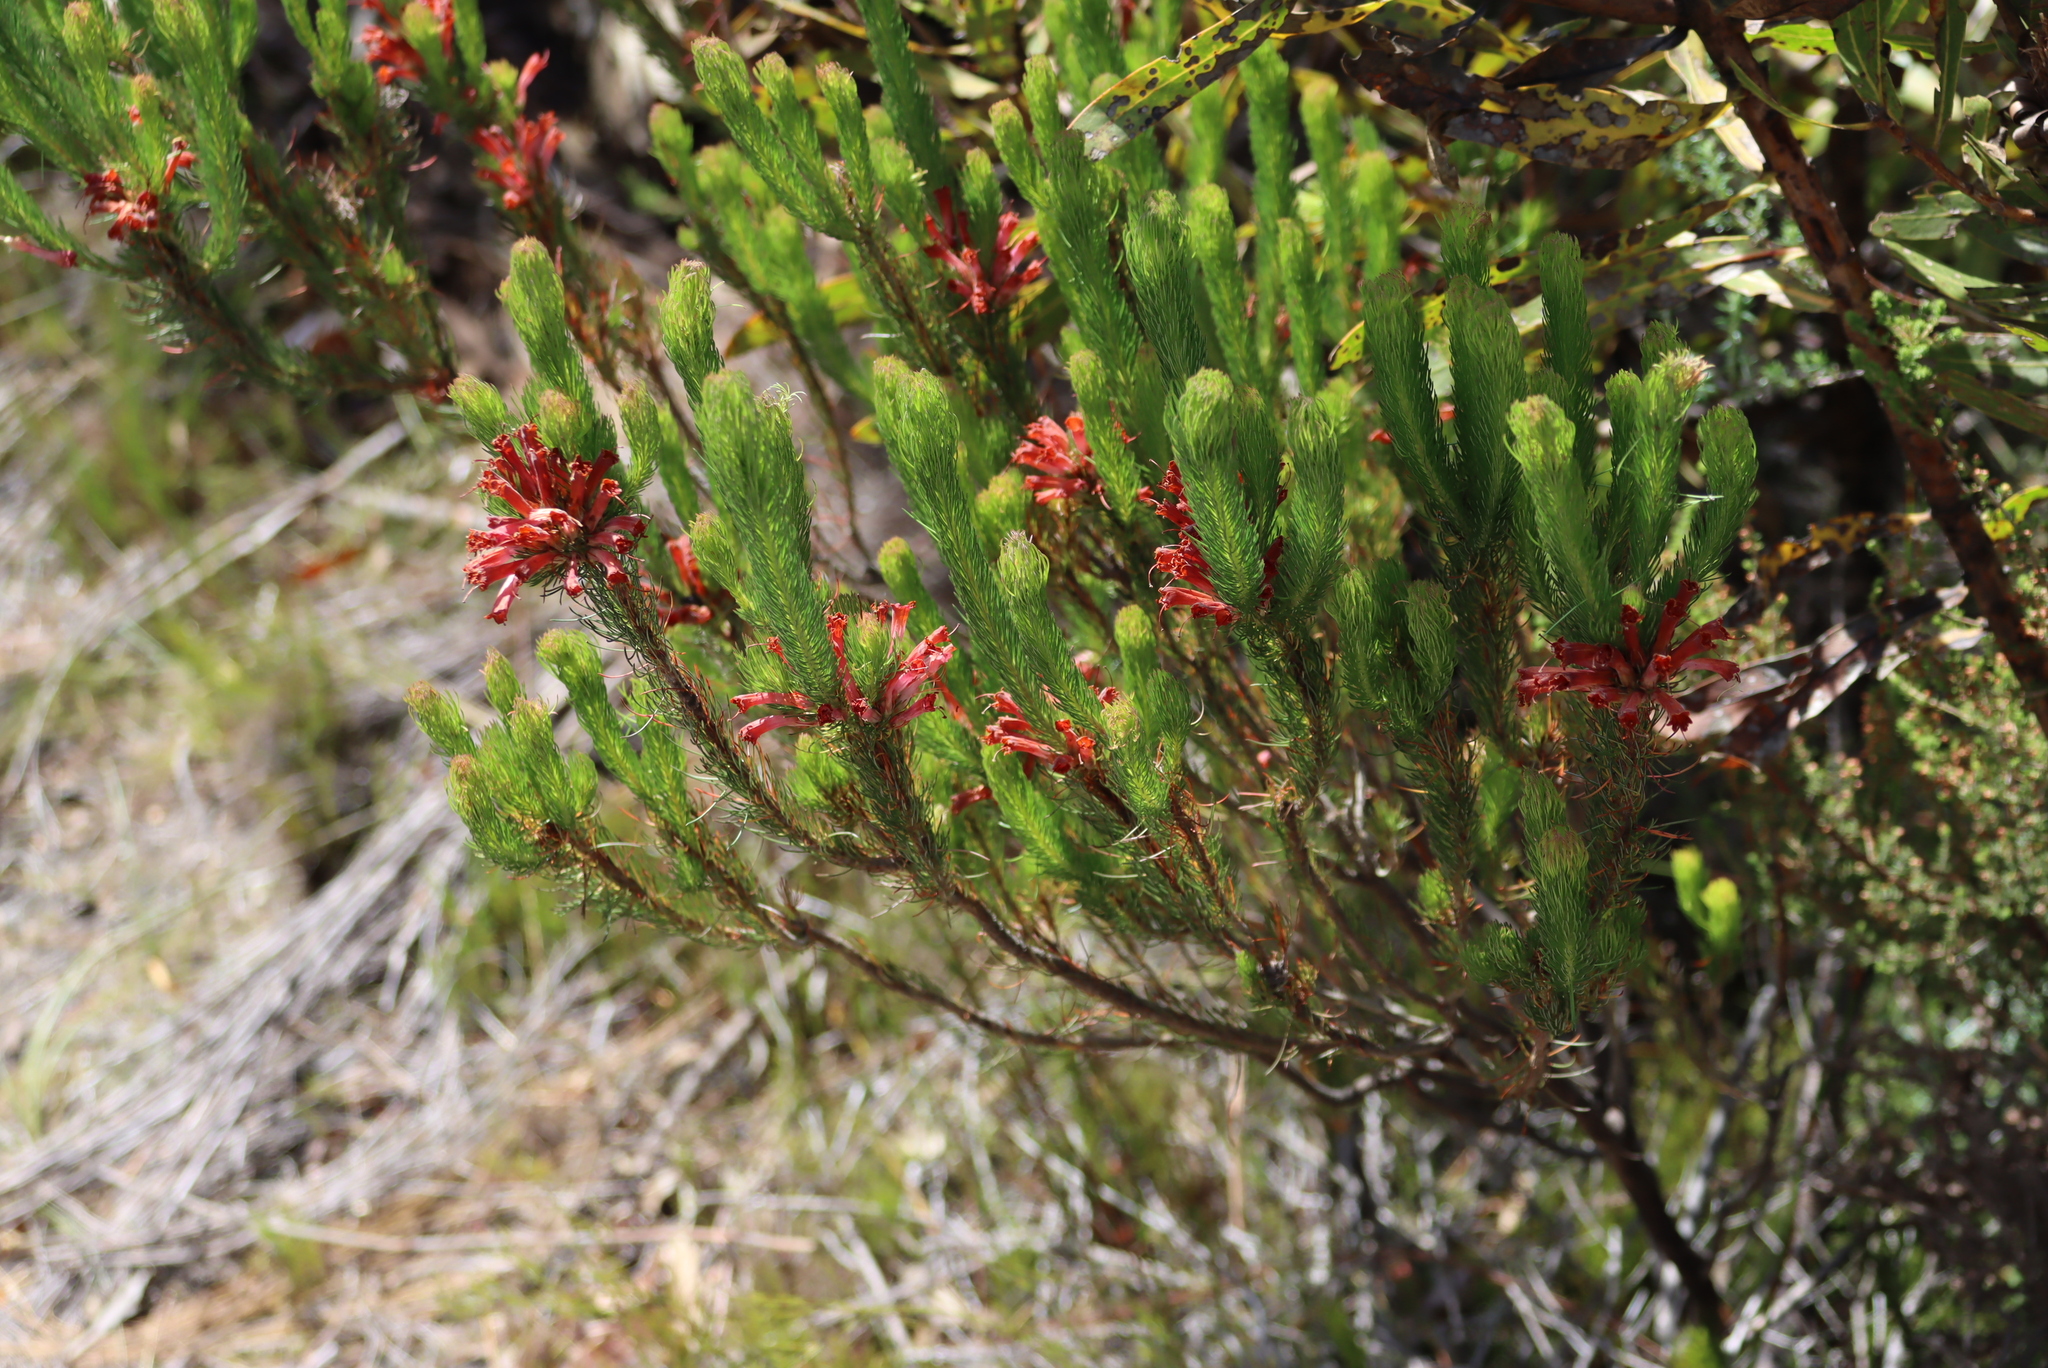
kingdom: Plantae
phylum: Tracheophyta
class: Magnoliopsida
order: Ericales
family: Ericaceae
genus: Erica
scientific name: Erica vestita
